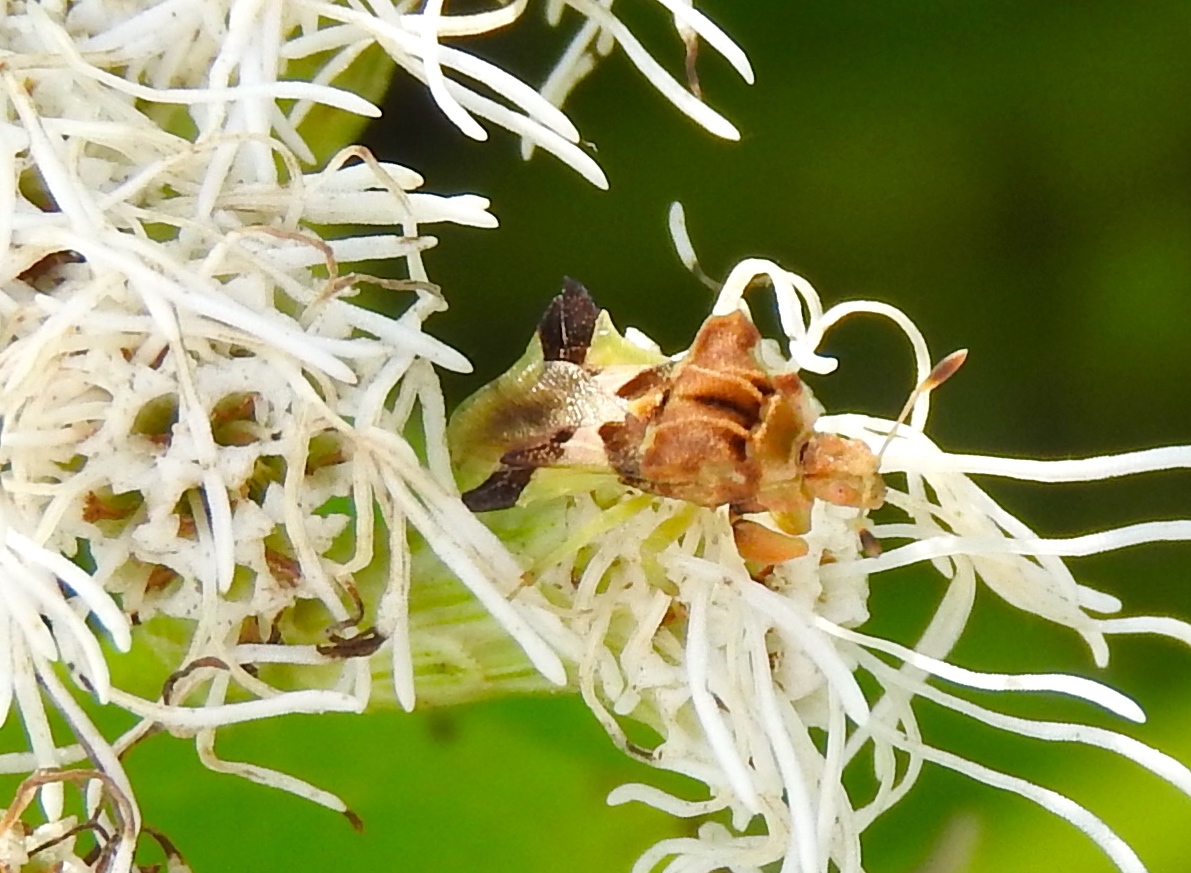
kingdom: Animalia
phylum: Arthropoda
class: Insecta
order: Hemiptera
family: Reduviidae
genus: Phymata
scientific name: Phymata
